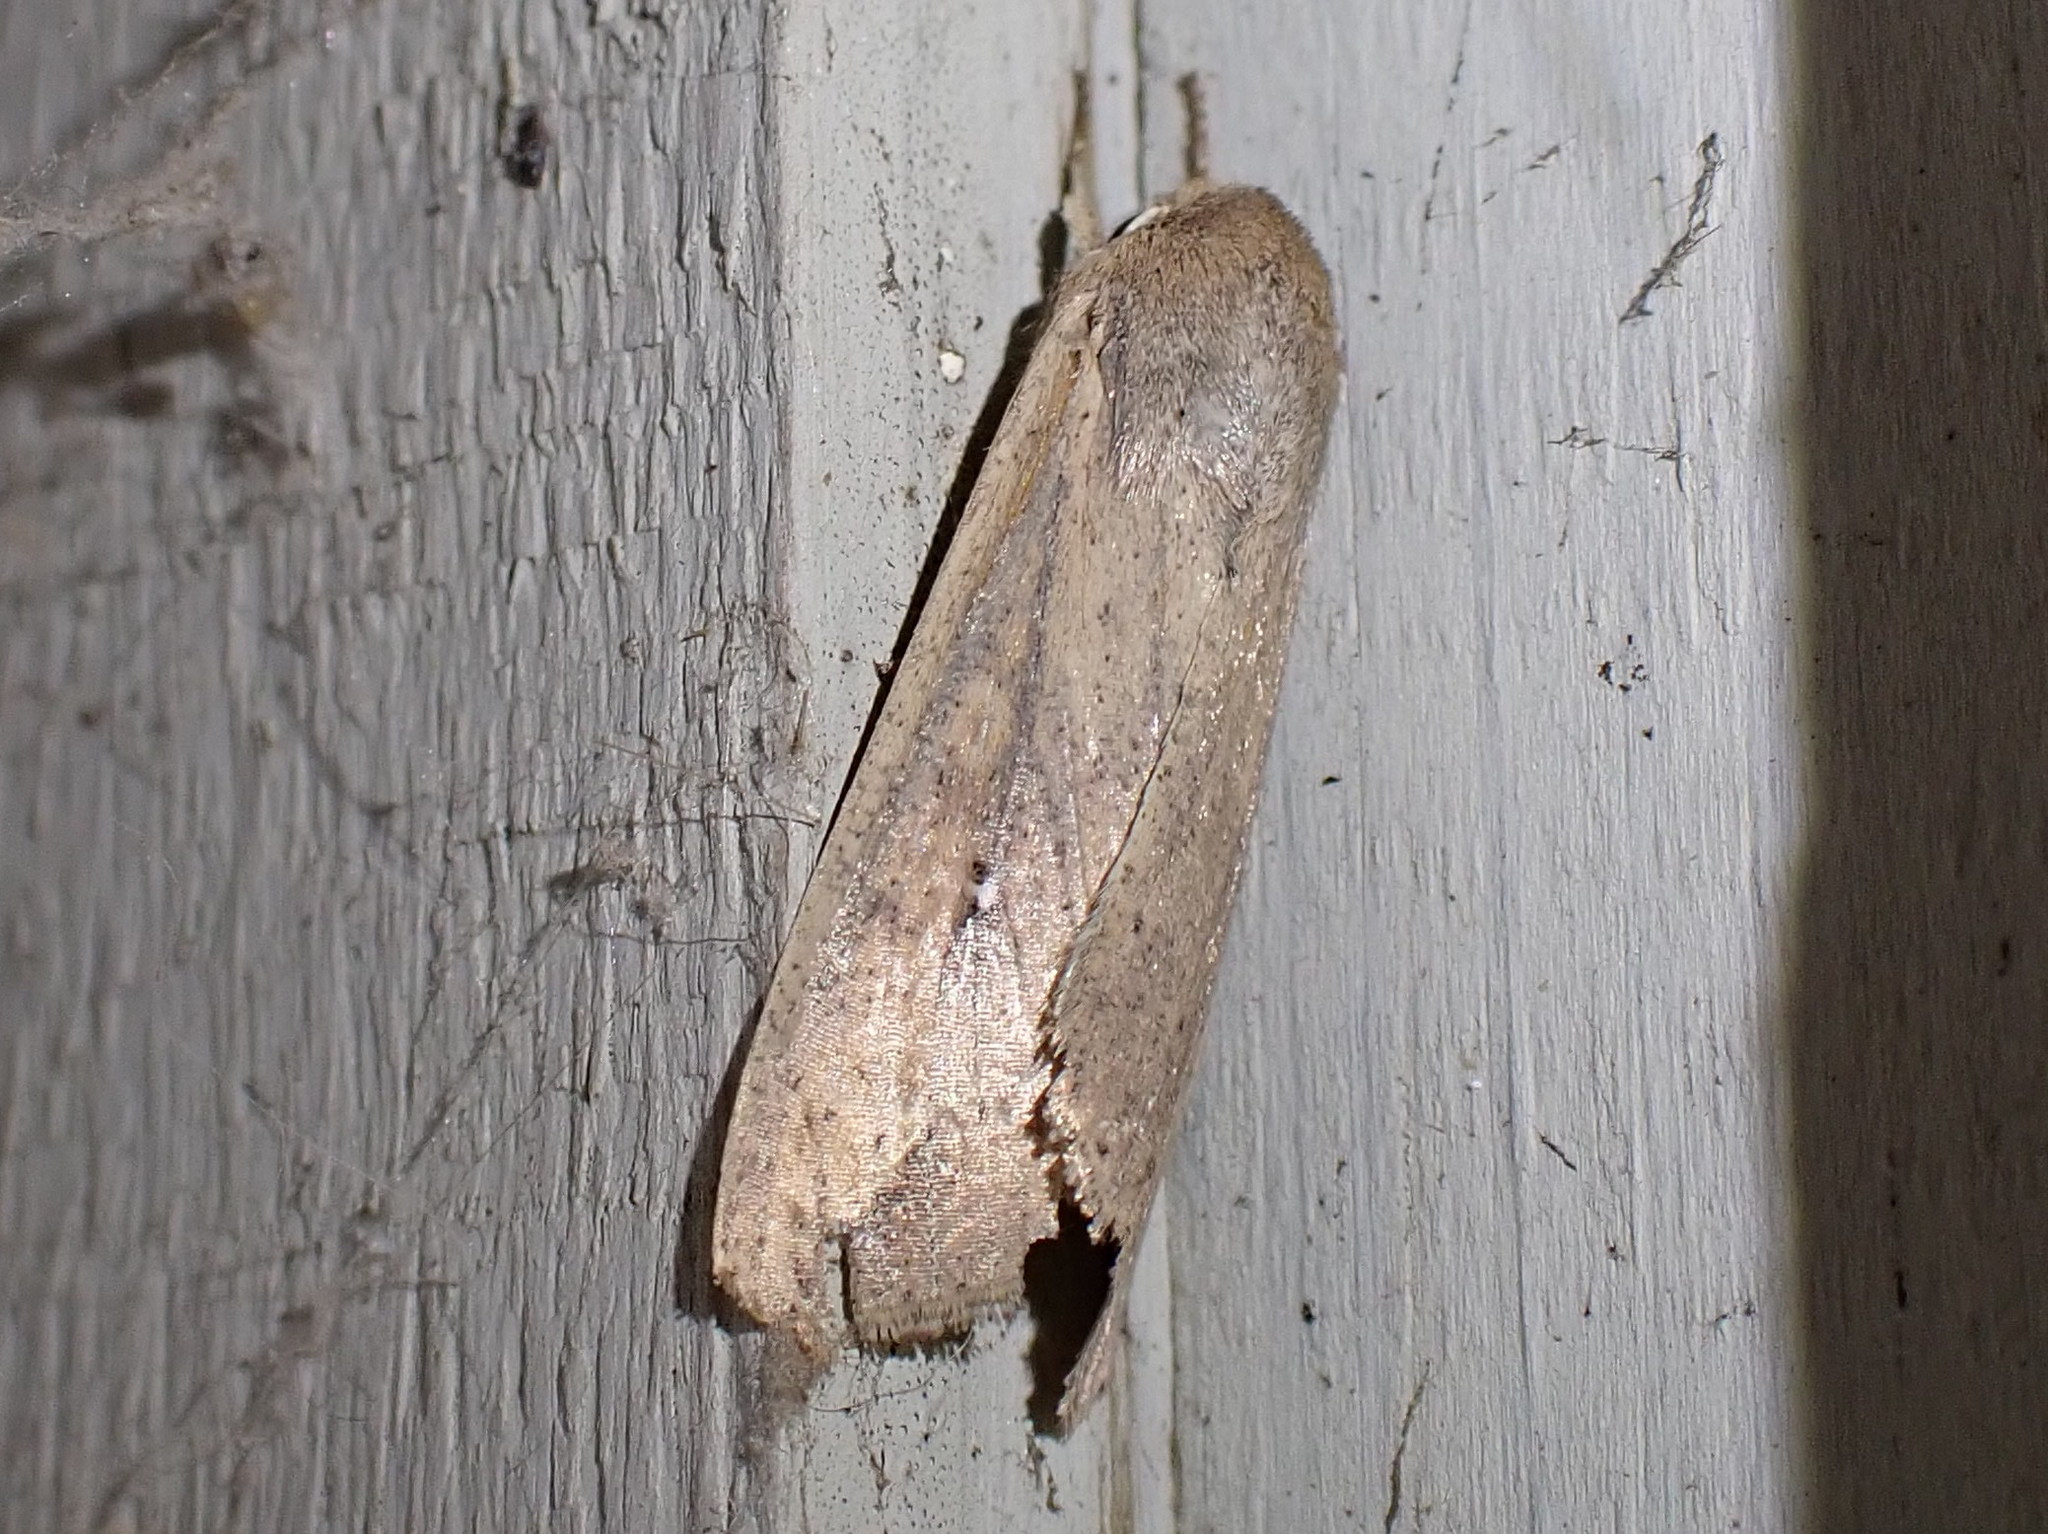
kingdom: Animalia
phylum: Arthropoda
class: Insecta
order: Lepidoptera
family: Noctuidae
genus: Mythimna
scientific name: Mythimna unipuncta
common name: White-speck
